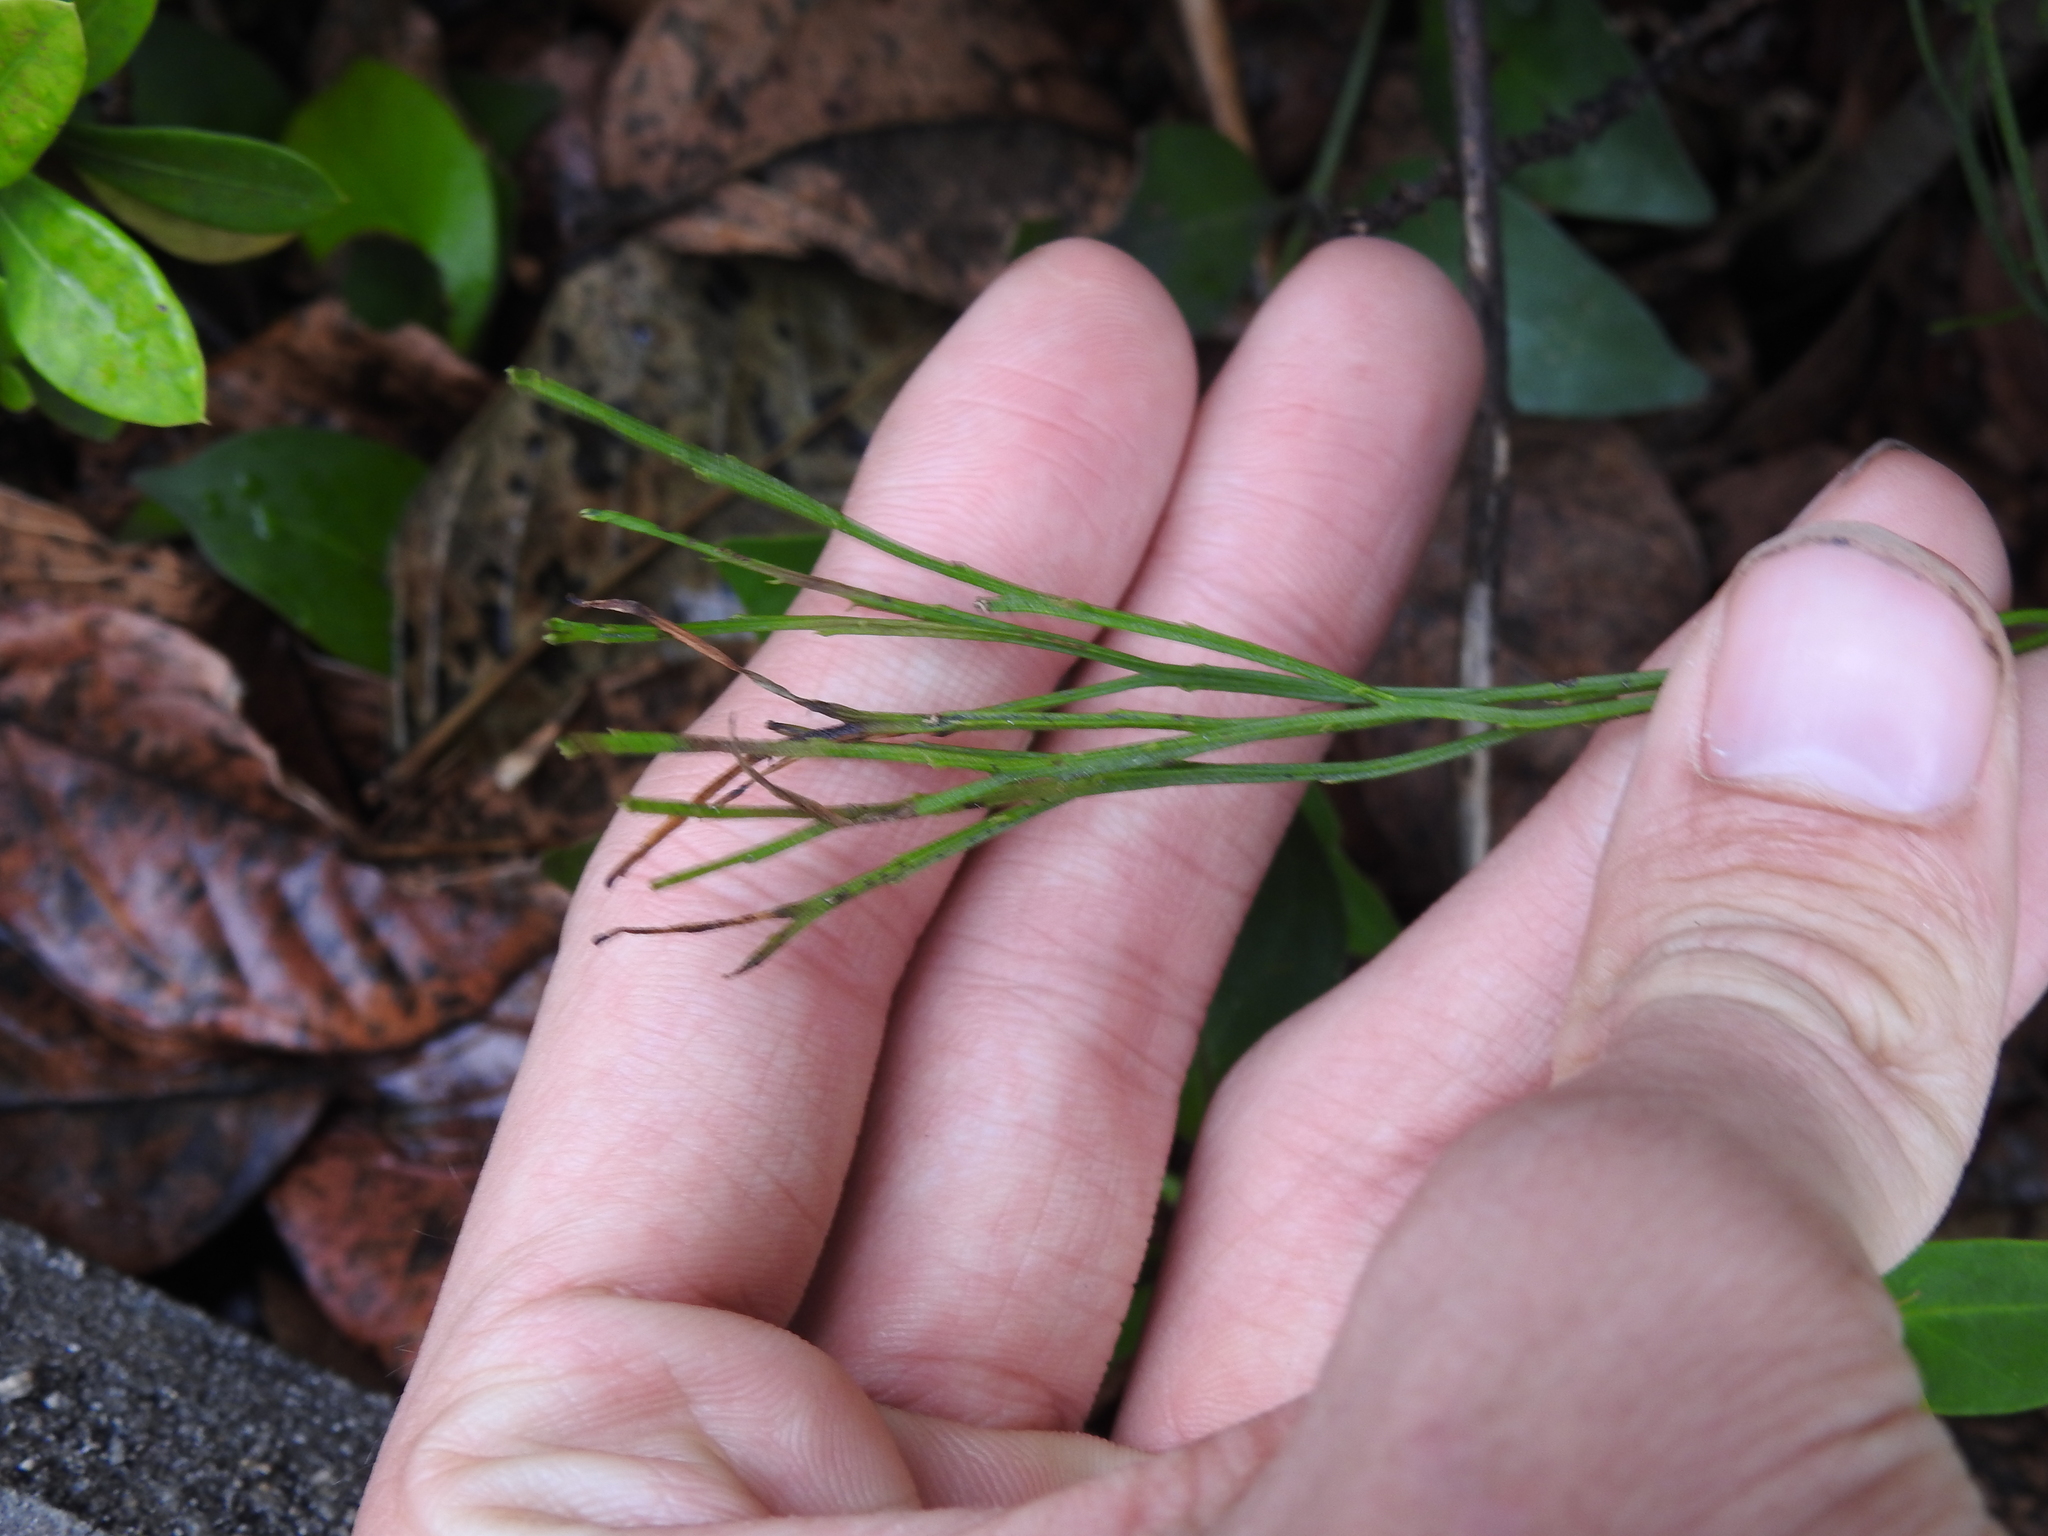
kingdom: Plantae
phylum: Tracheophyta
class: Polypodiopsida
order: Psilotales
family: Psilotaceae
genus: Psilotum
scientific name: Psilotum nudum
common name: Skeleton fork fern
